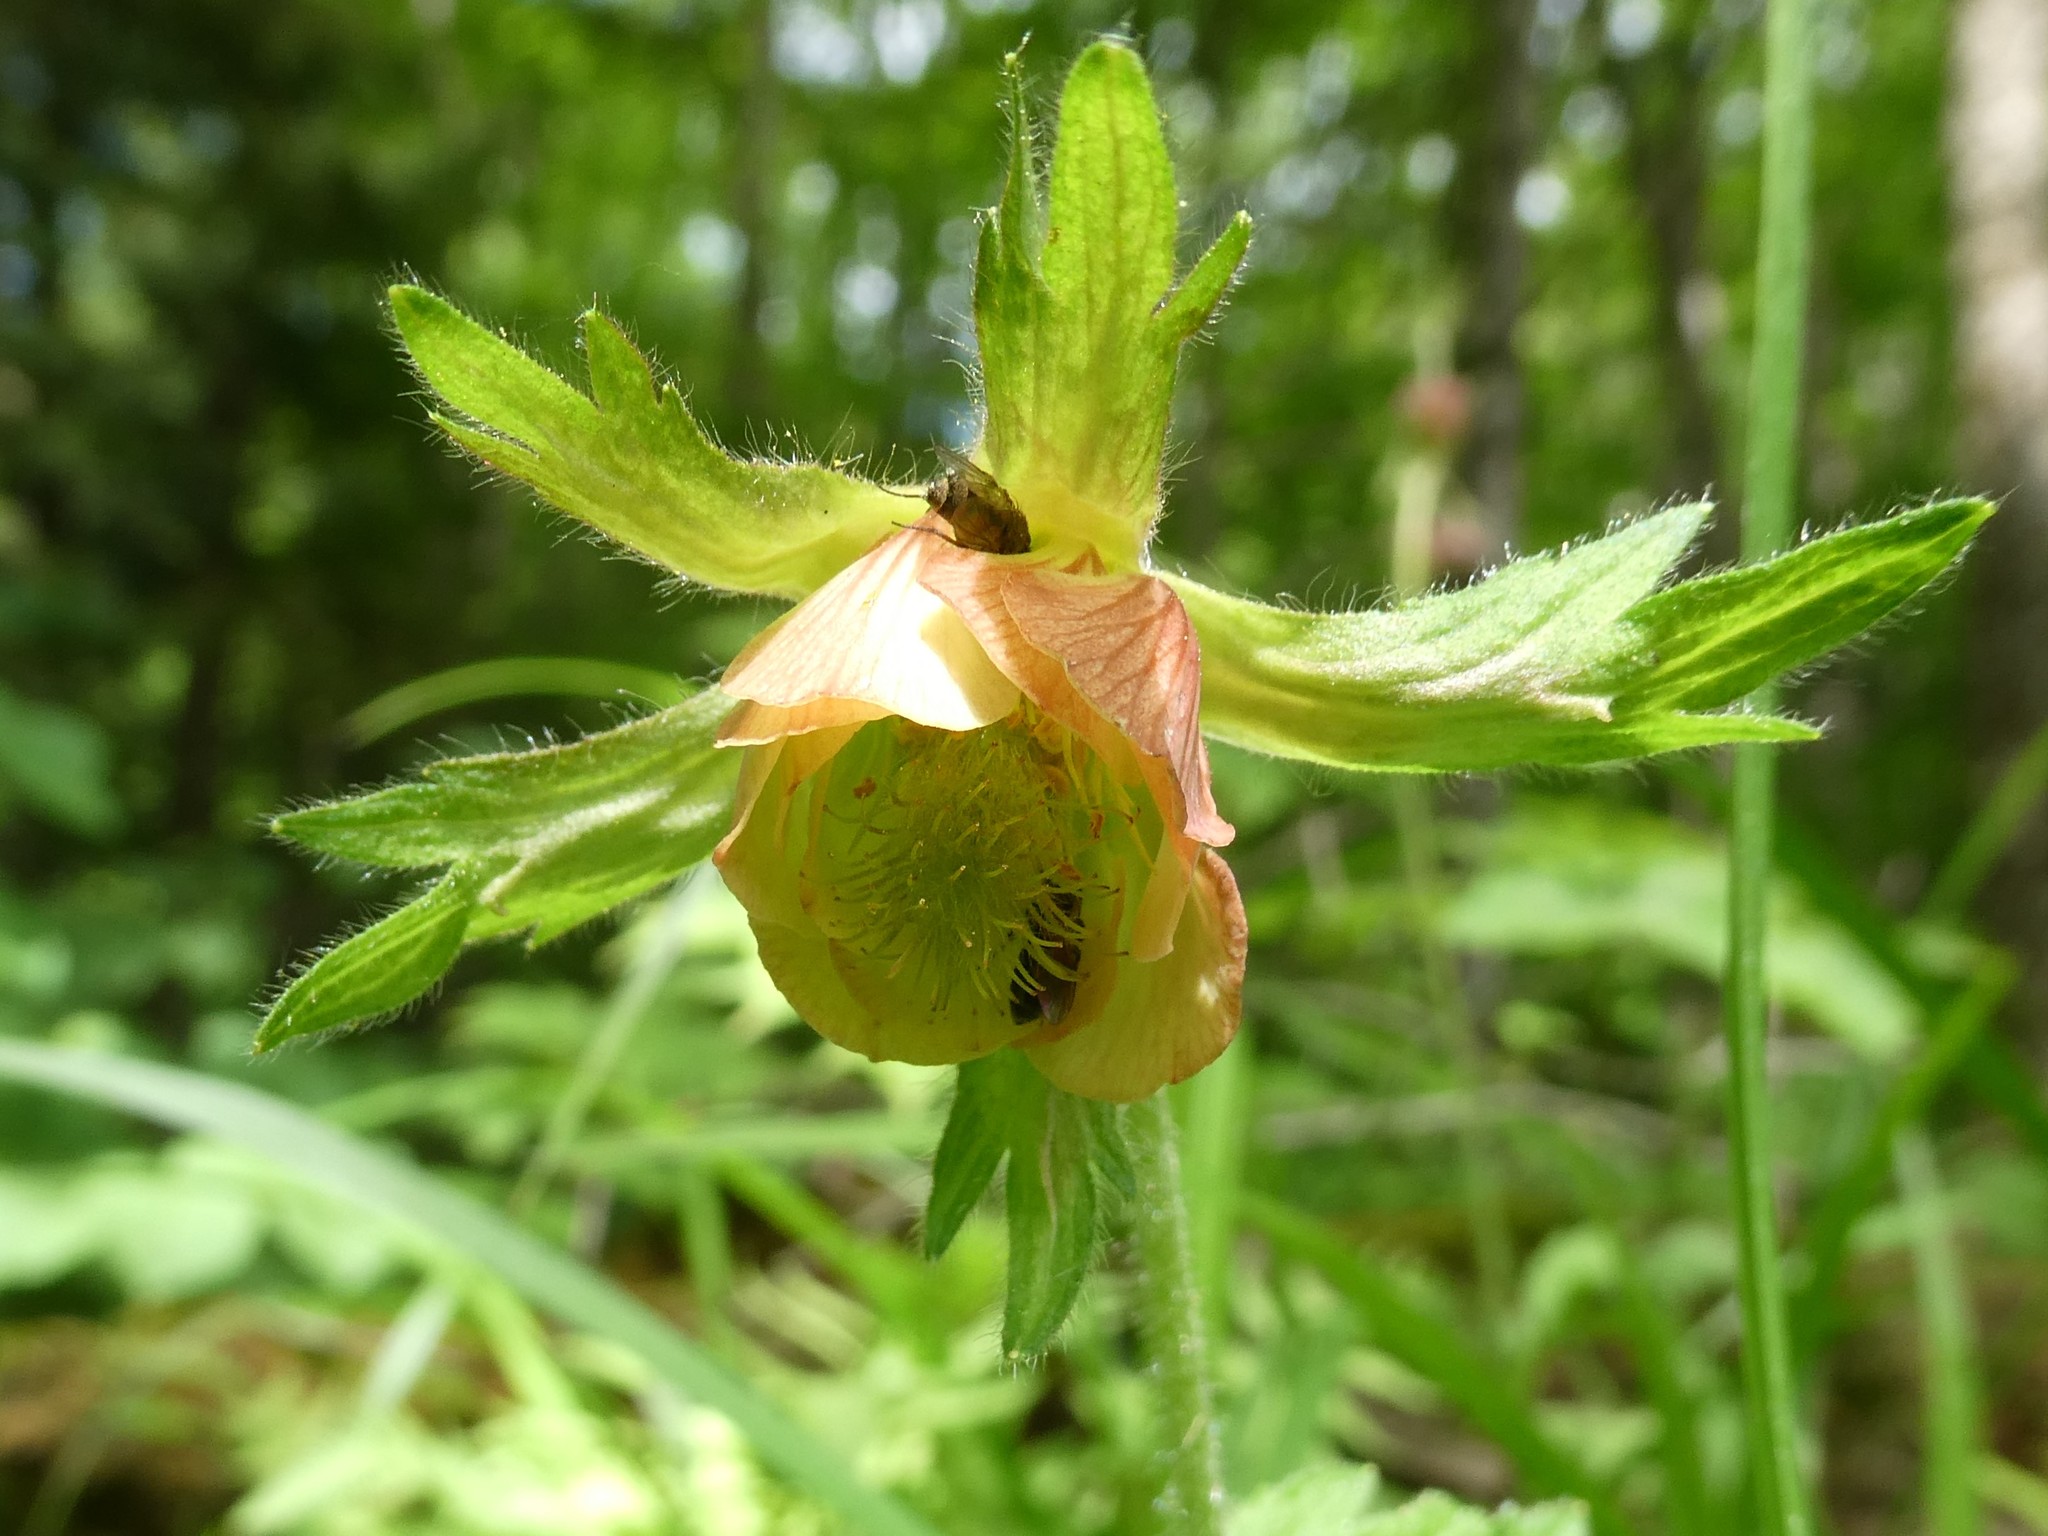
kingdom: Plantae
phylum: Tracheophyta
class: Magnoliopsida
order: Rosales
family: Rosaceae
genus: Geum
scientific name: Geum rivale
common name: Water avens
